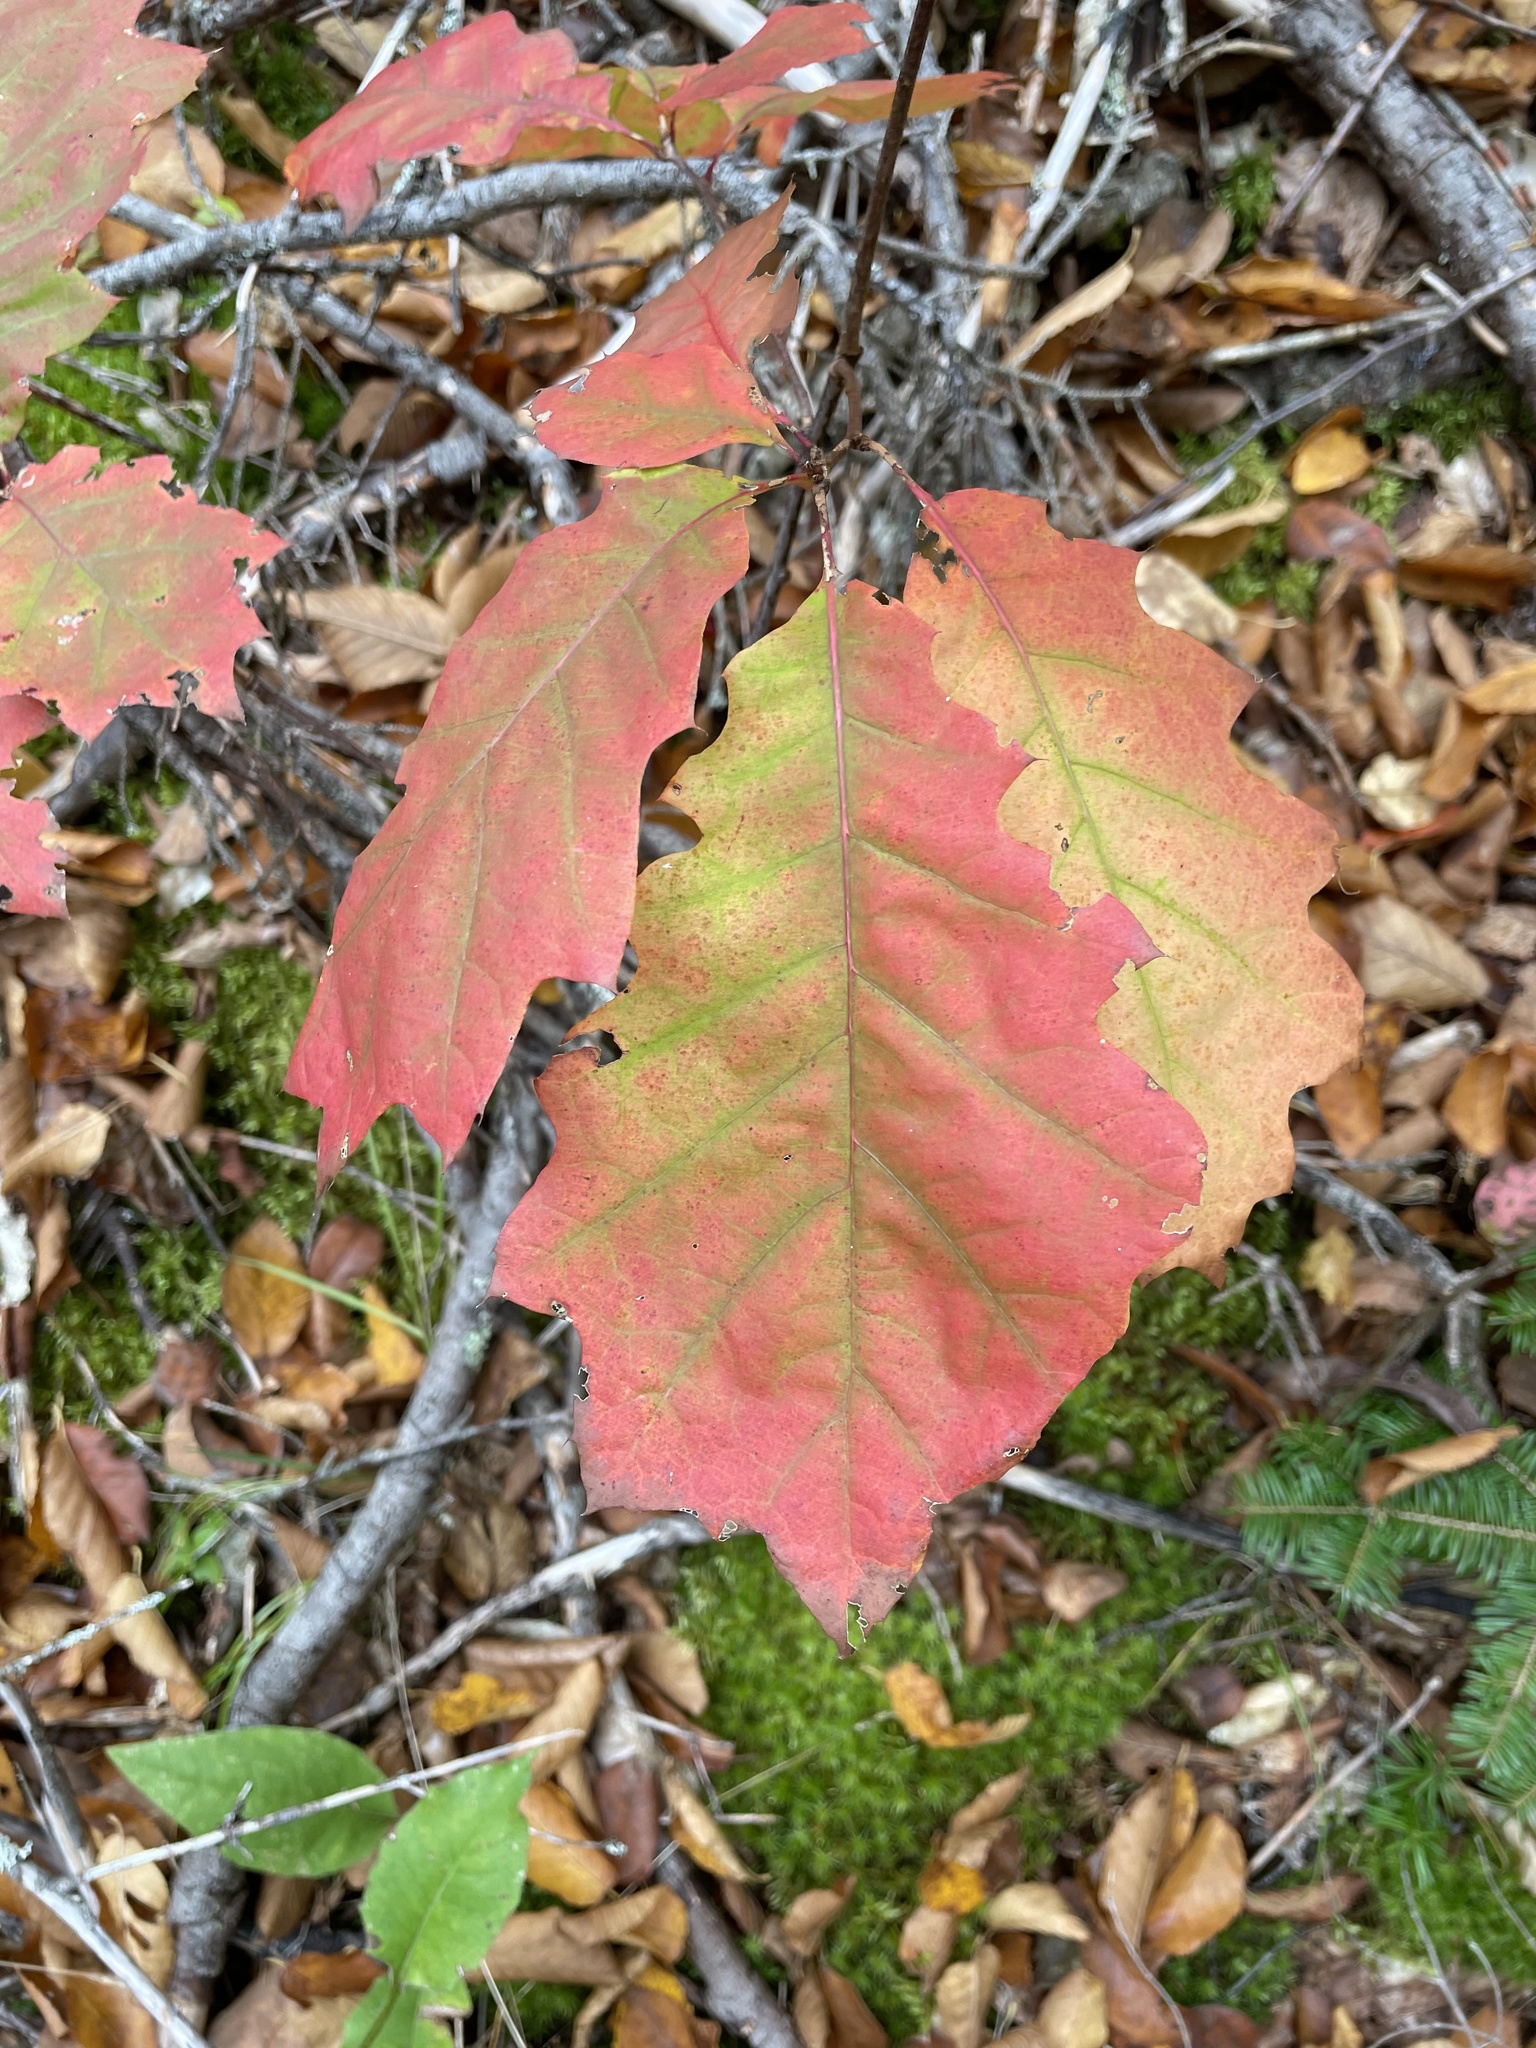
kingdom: Plantae
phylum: Tracheophyta
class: Magnoliopsida
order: Fagales
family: Fagaceae
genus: Quercus
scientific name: Quercus rubra
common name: Red oak
